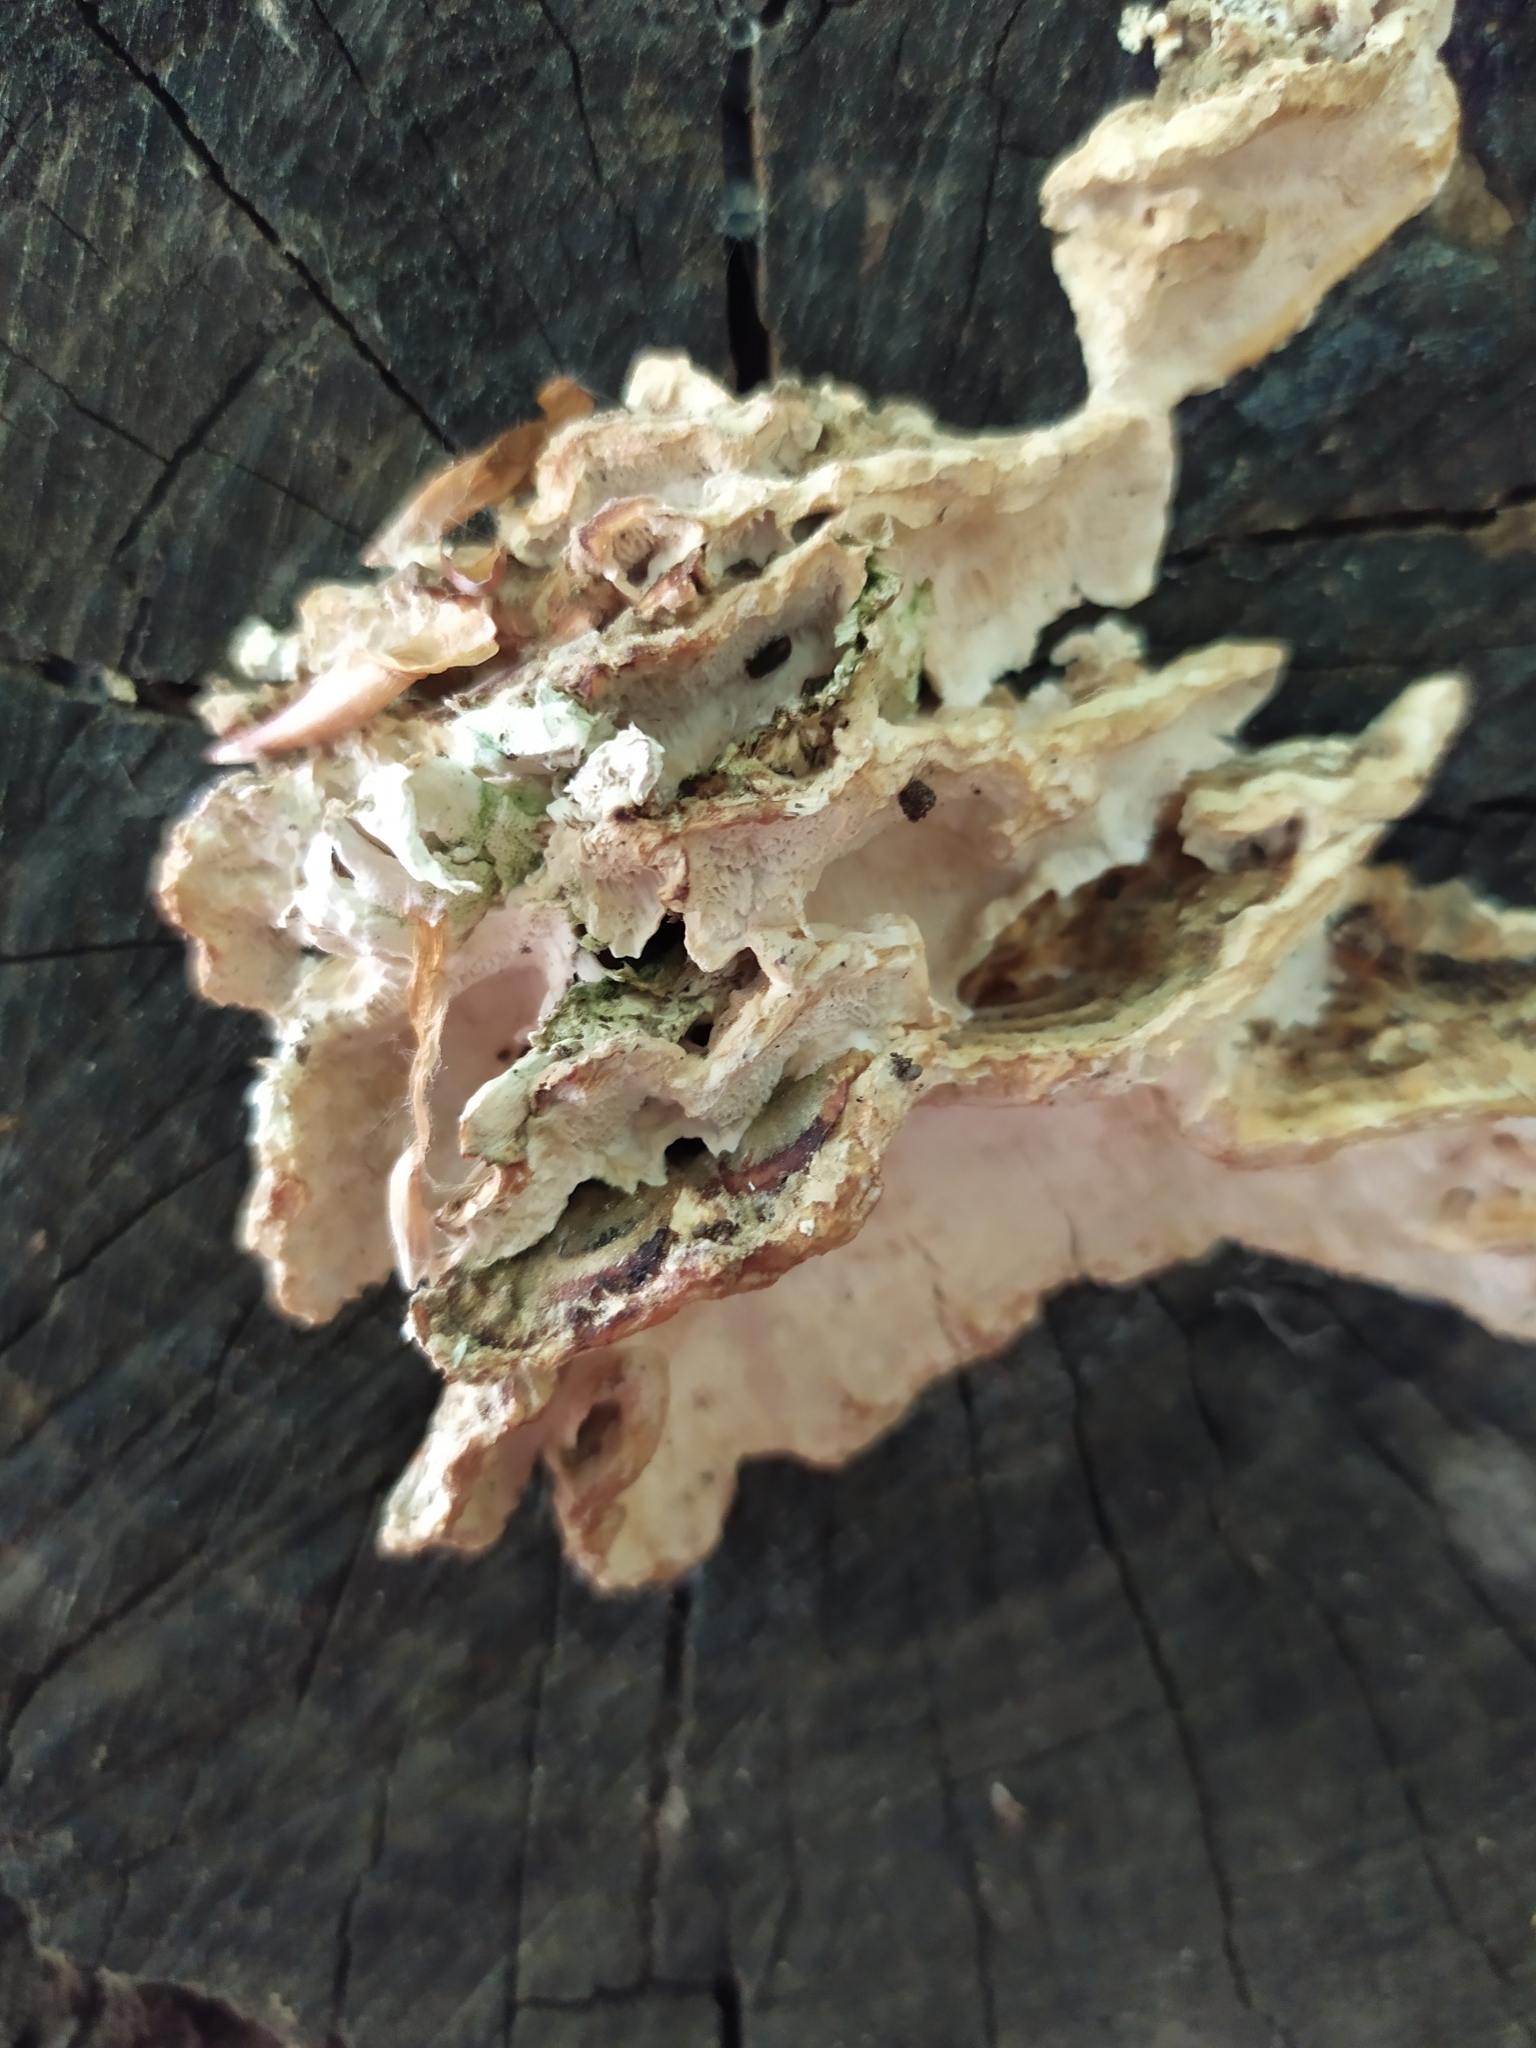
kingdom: Fungi
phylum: Basidiomycota
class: Agaricomycetes
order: Polyporales
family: Polyporaceae
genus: Trametes
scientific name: Trametes versicolor
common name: Turkeytail
